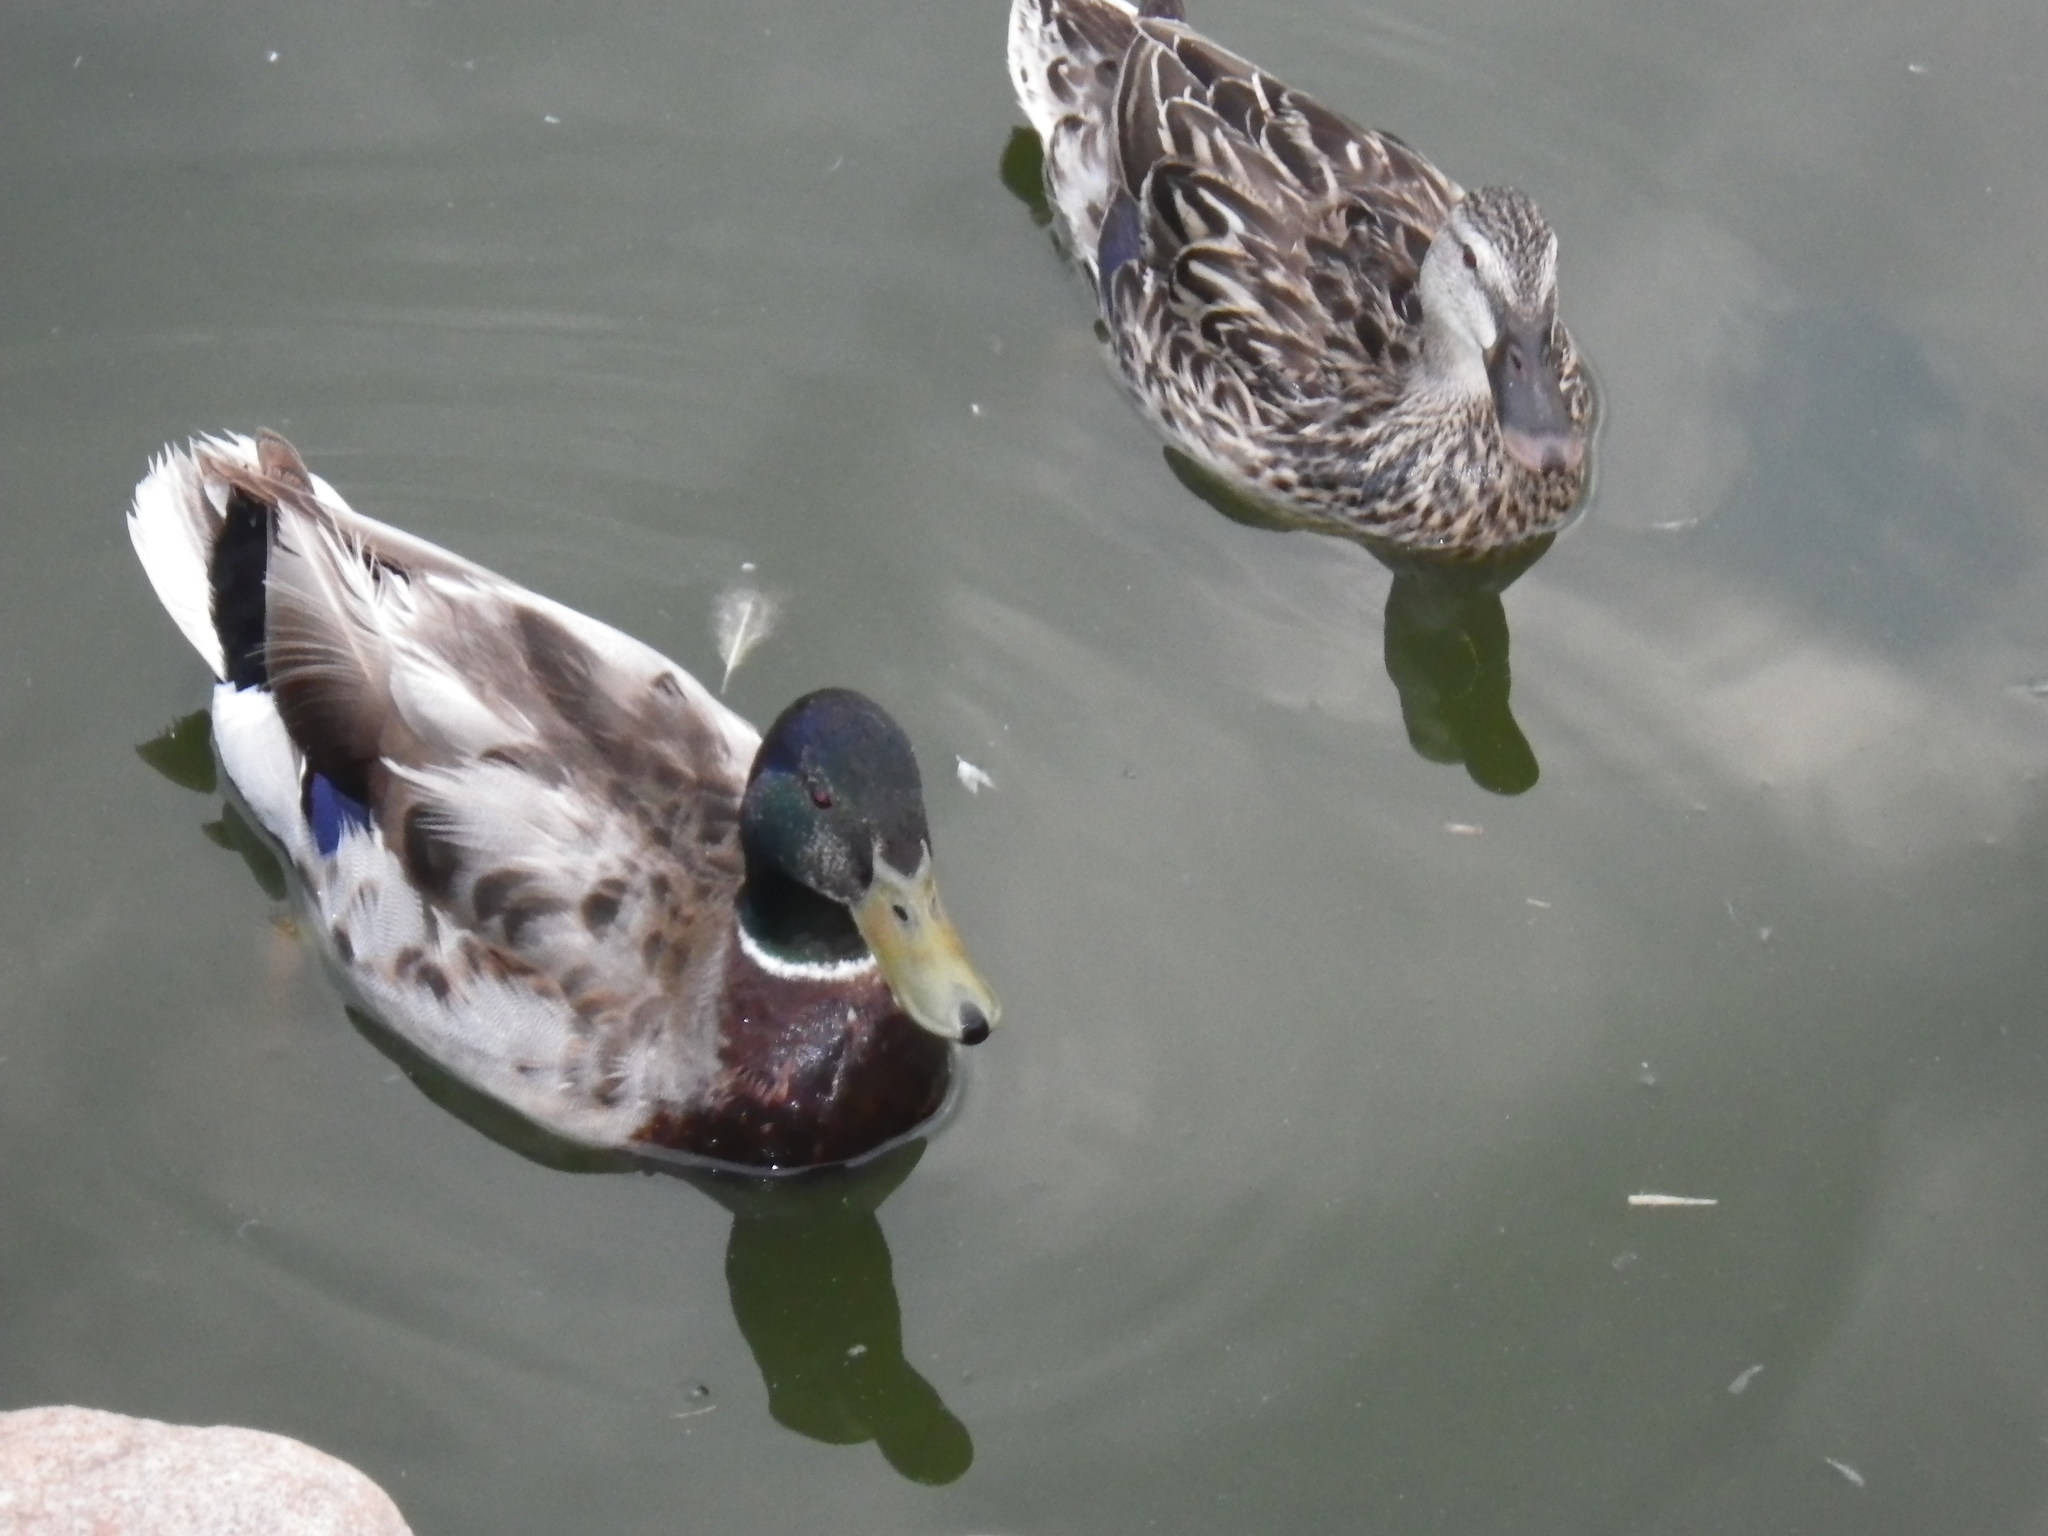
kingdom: Animalia
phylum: Chordata
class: Aves
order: Anseriformes
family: Anatidae
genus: Anas
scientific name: Anas platyrhynchos
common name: Mallard
